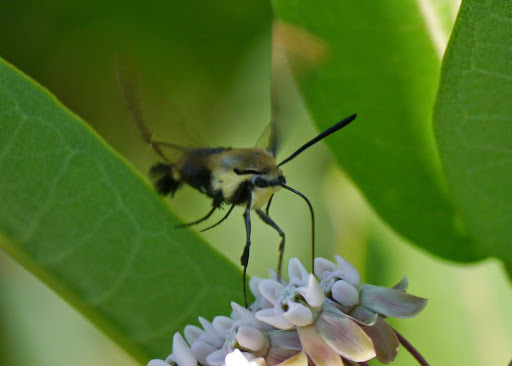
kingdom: Animalia
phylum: Arthropoda
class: Insecta
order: Lepidoptera
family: Sphingidae
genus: Hemaris
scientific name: Hemaris diffinis
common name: Bumblebee moth
